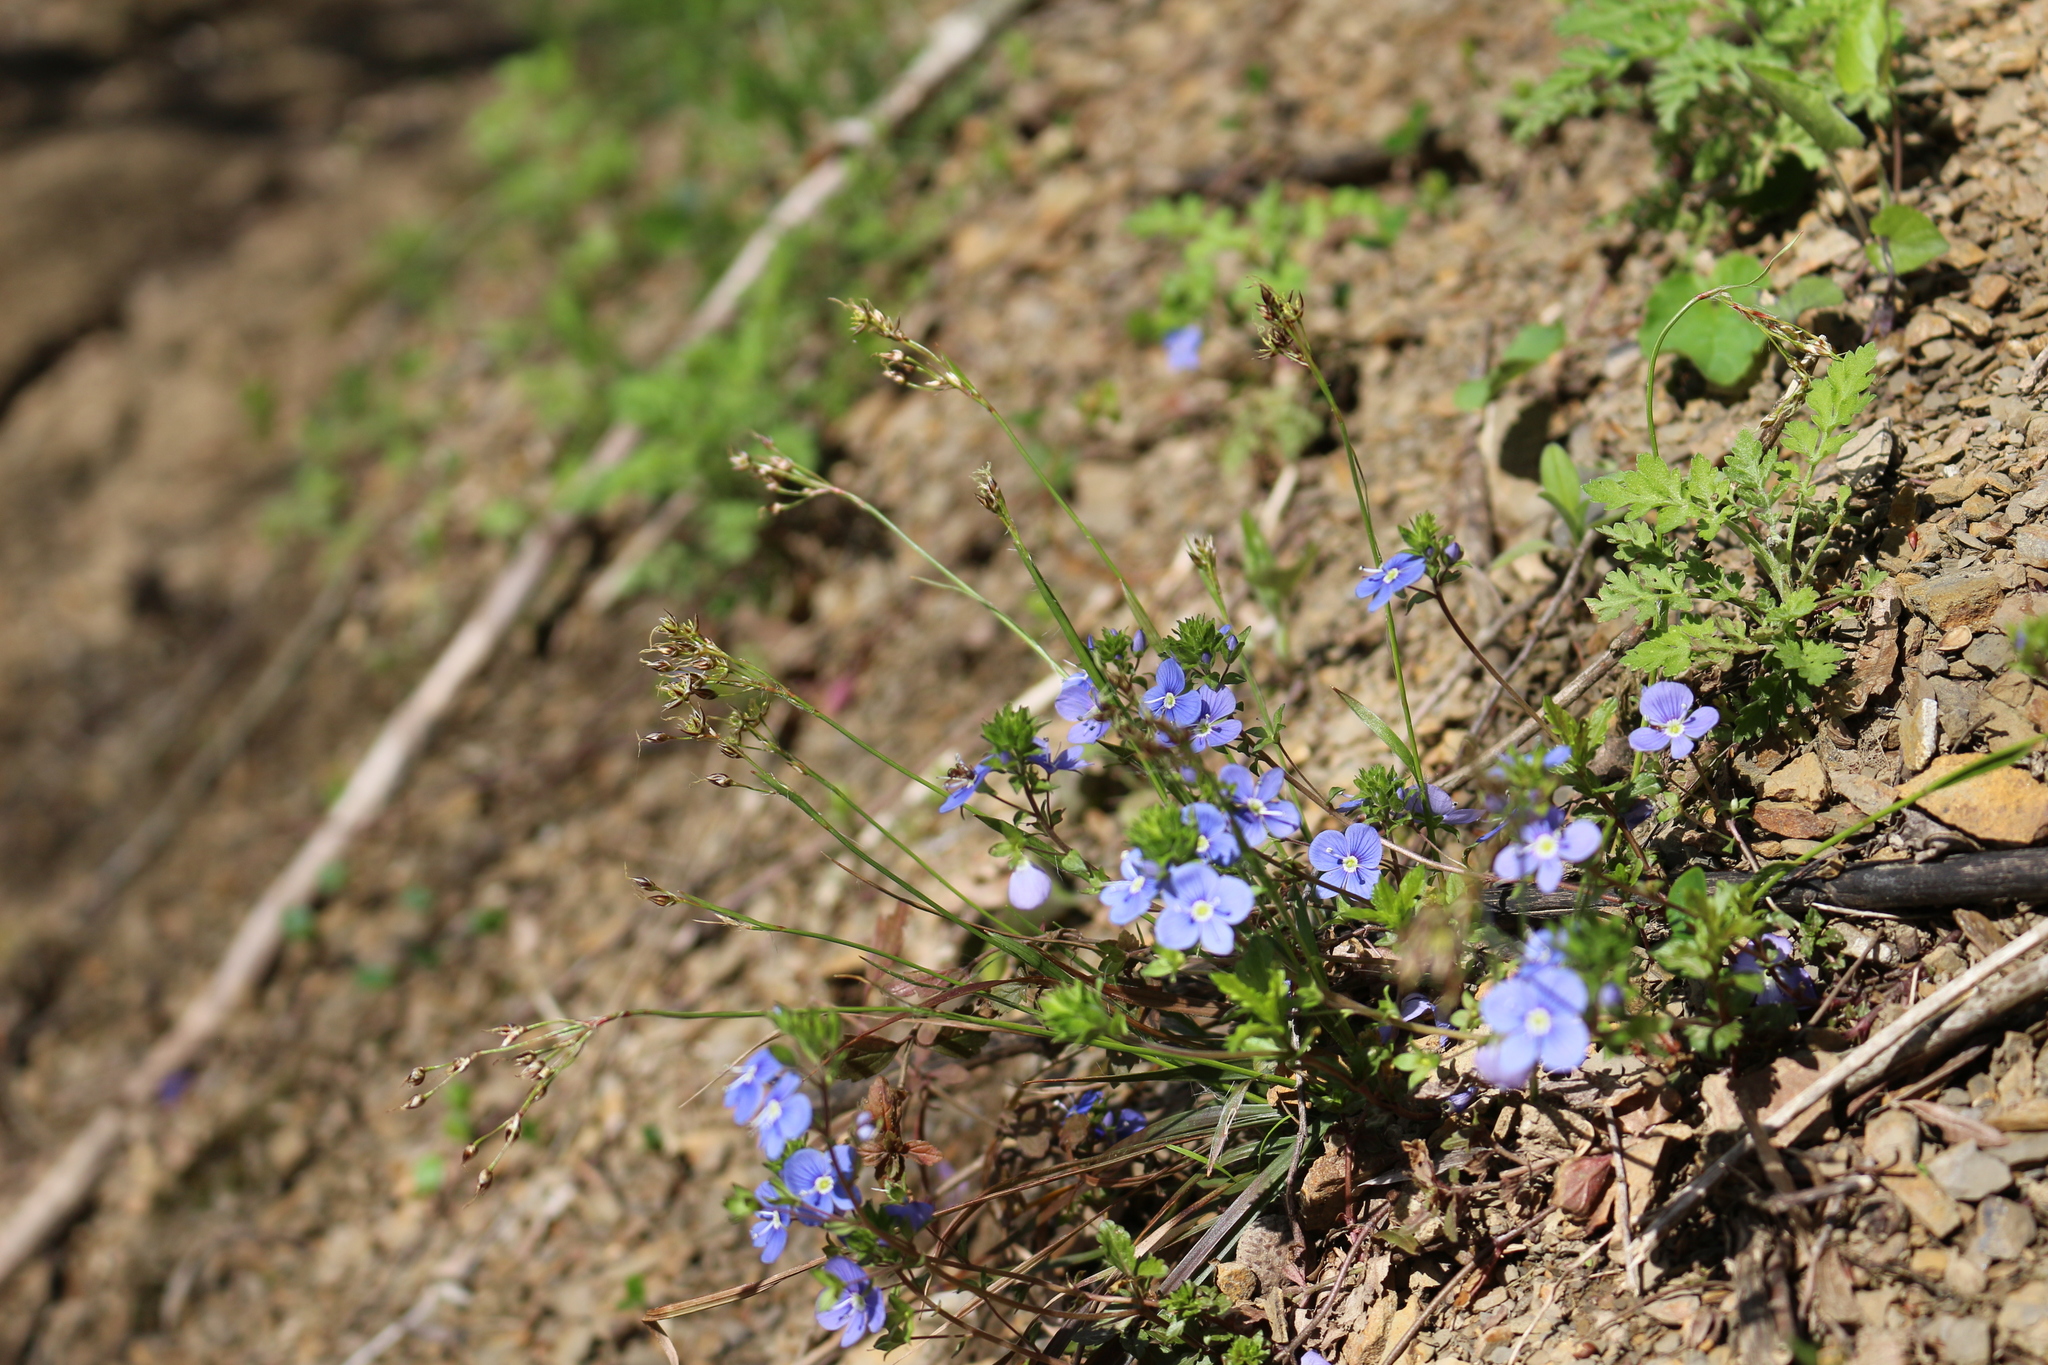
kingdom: Plantae
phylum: Tracheophyta
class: Liliopsida
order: Poales
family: Juncaceae
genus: Luzula
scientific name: Luzula forsteri
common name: Southern wood-rush
